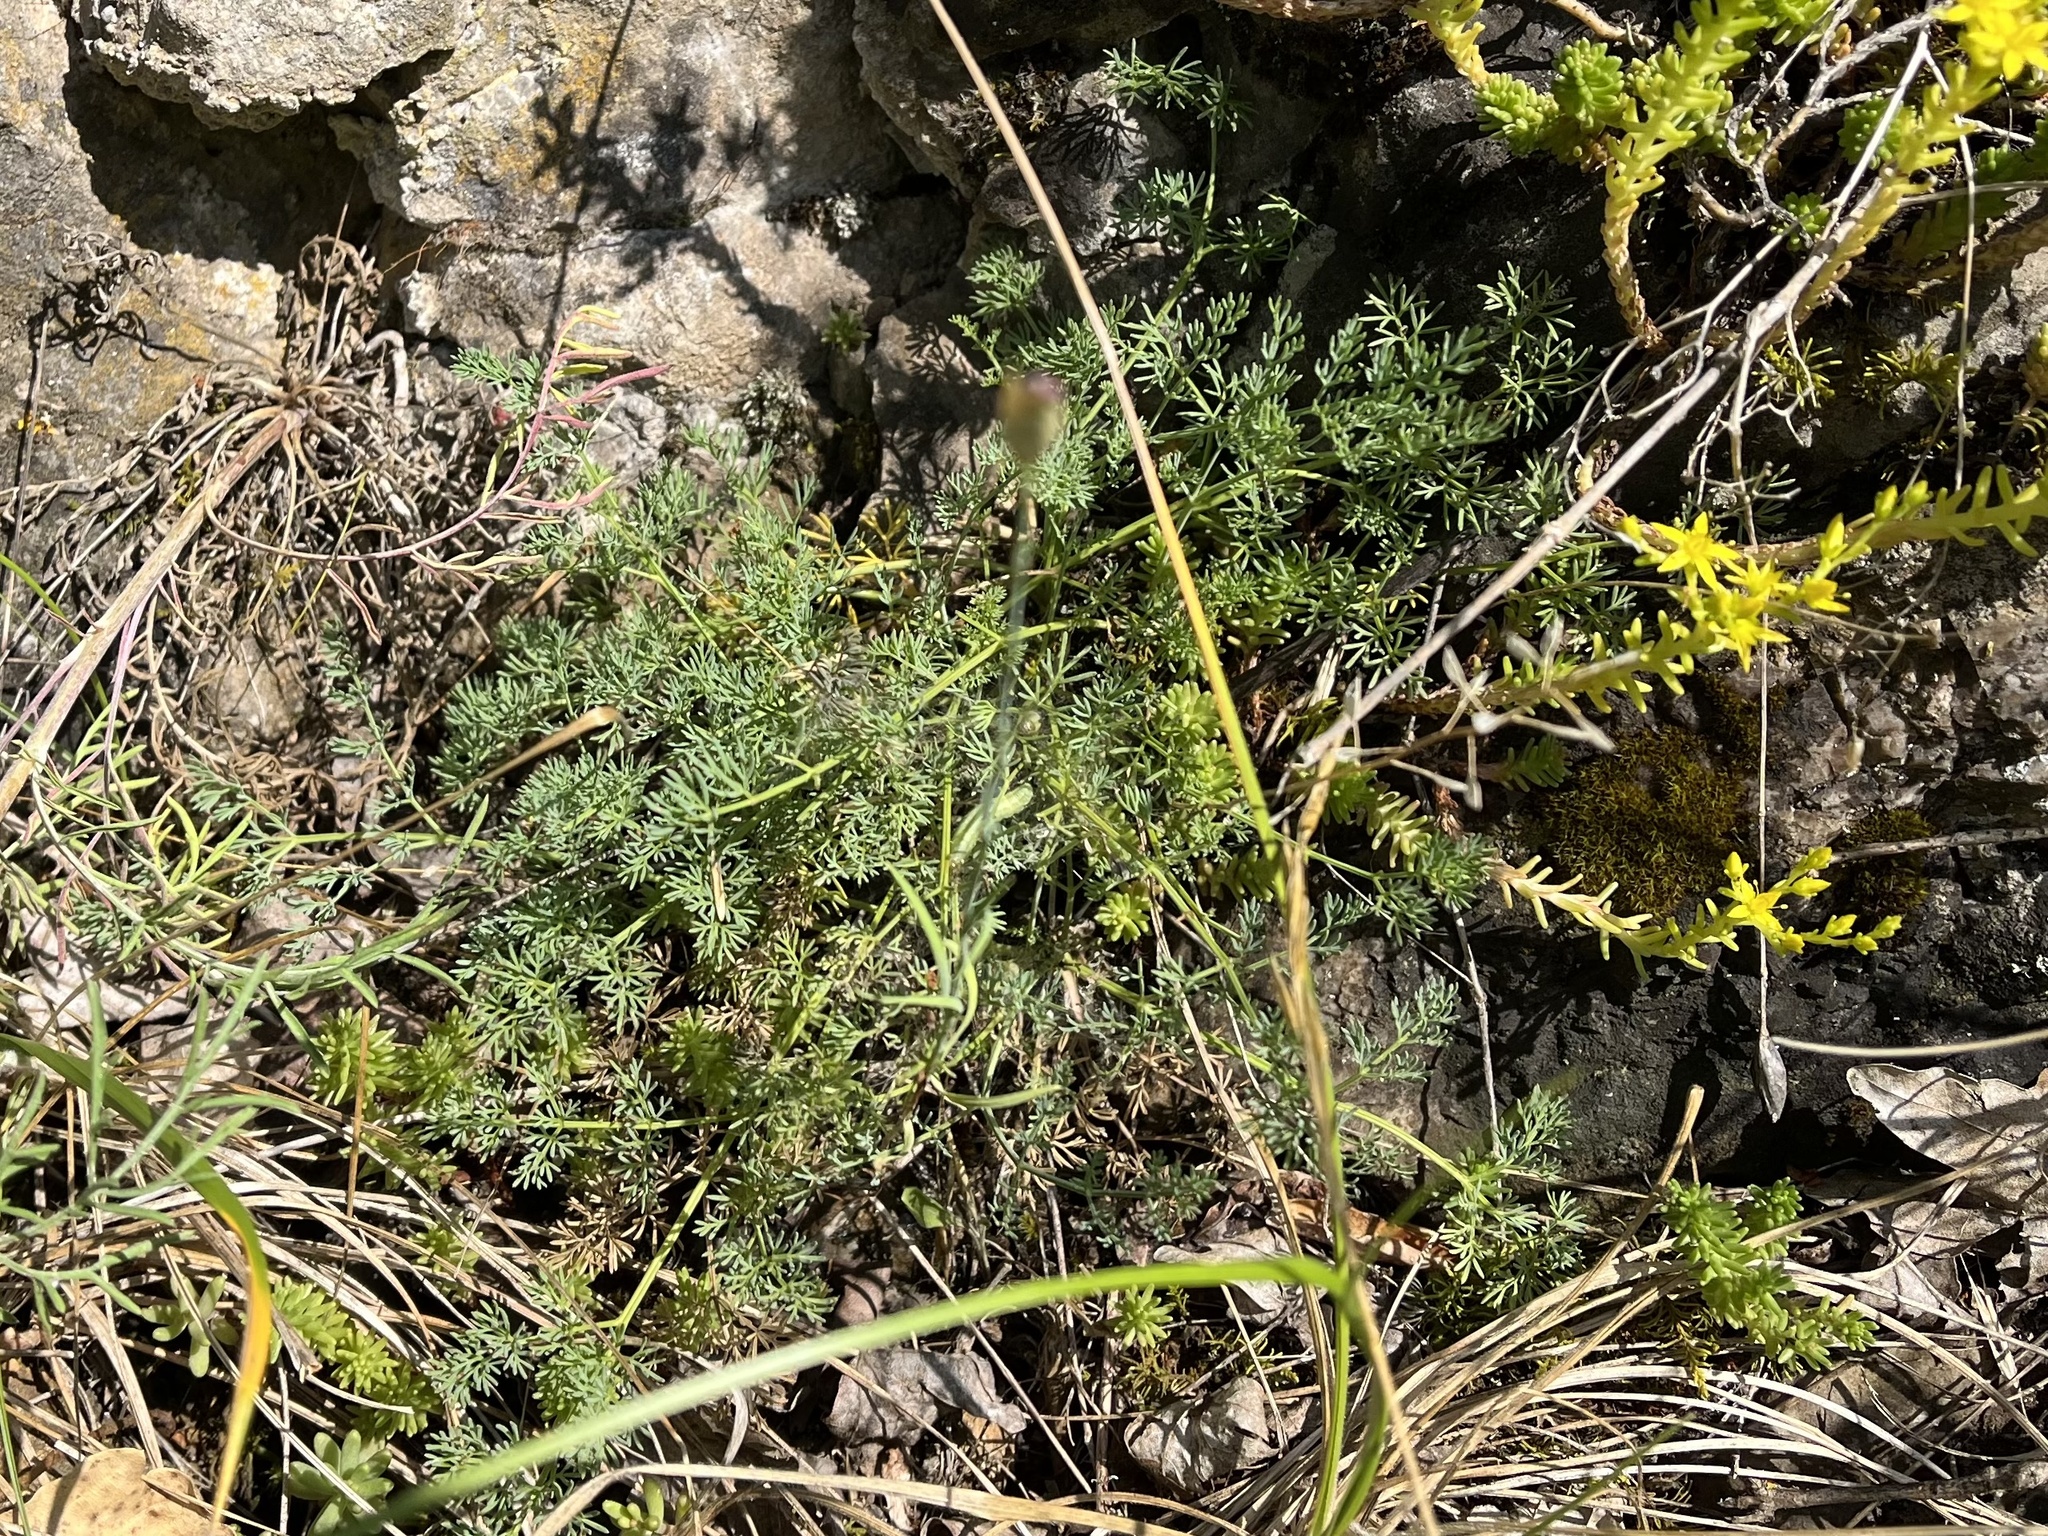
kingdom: Plantae
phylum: Tracheophyta
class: Magnoliopsida
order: Apiales
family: Apiaceae
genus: Hippomarathrum
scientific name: Hippomarathrum
